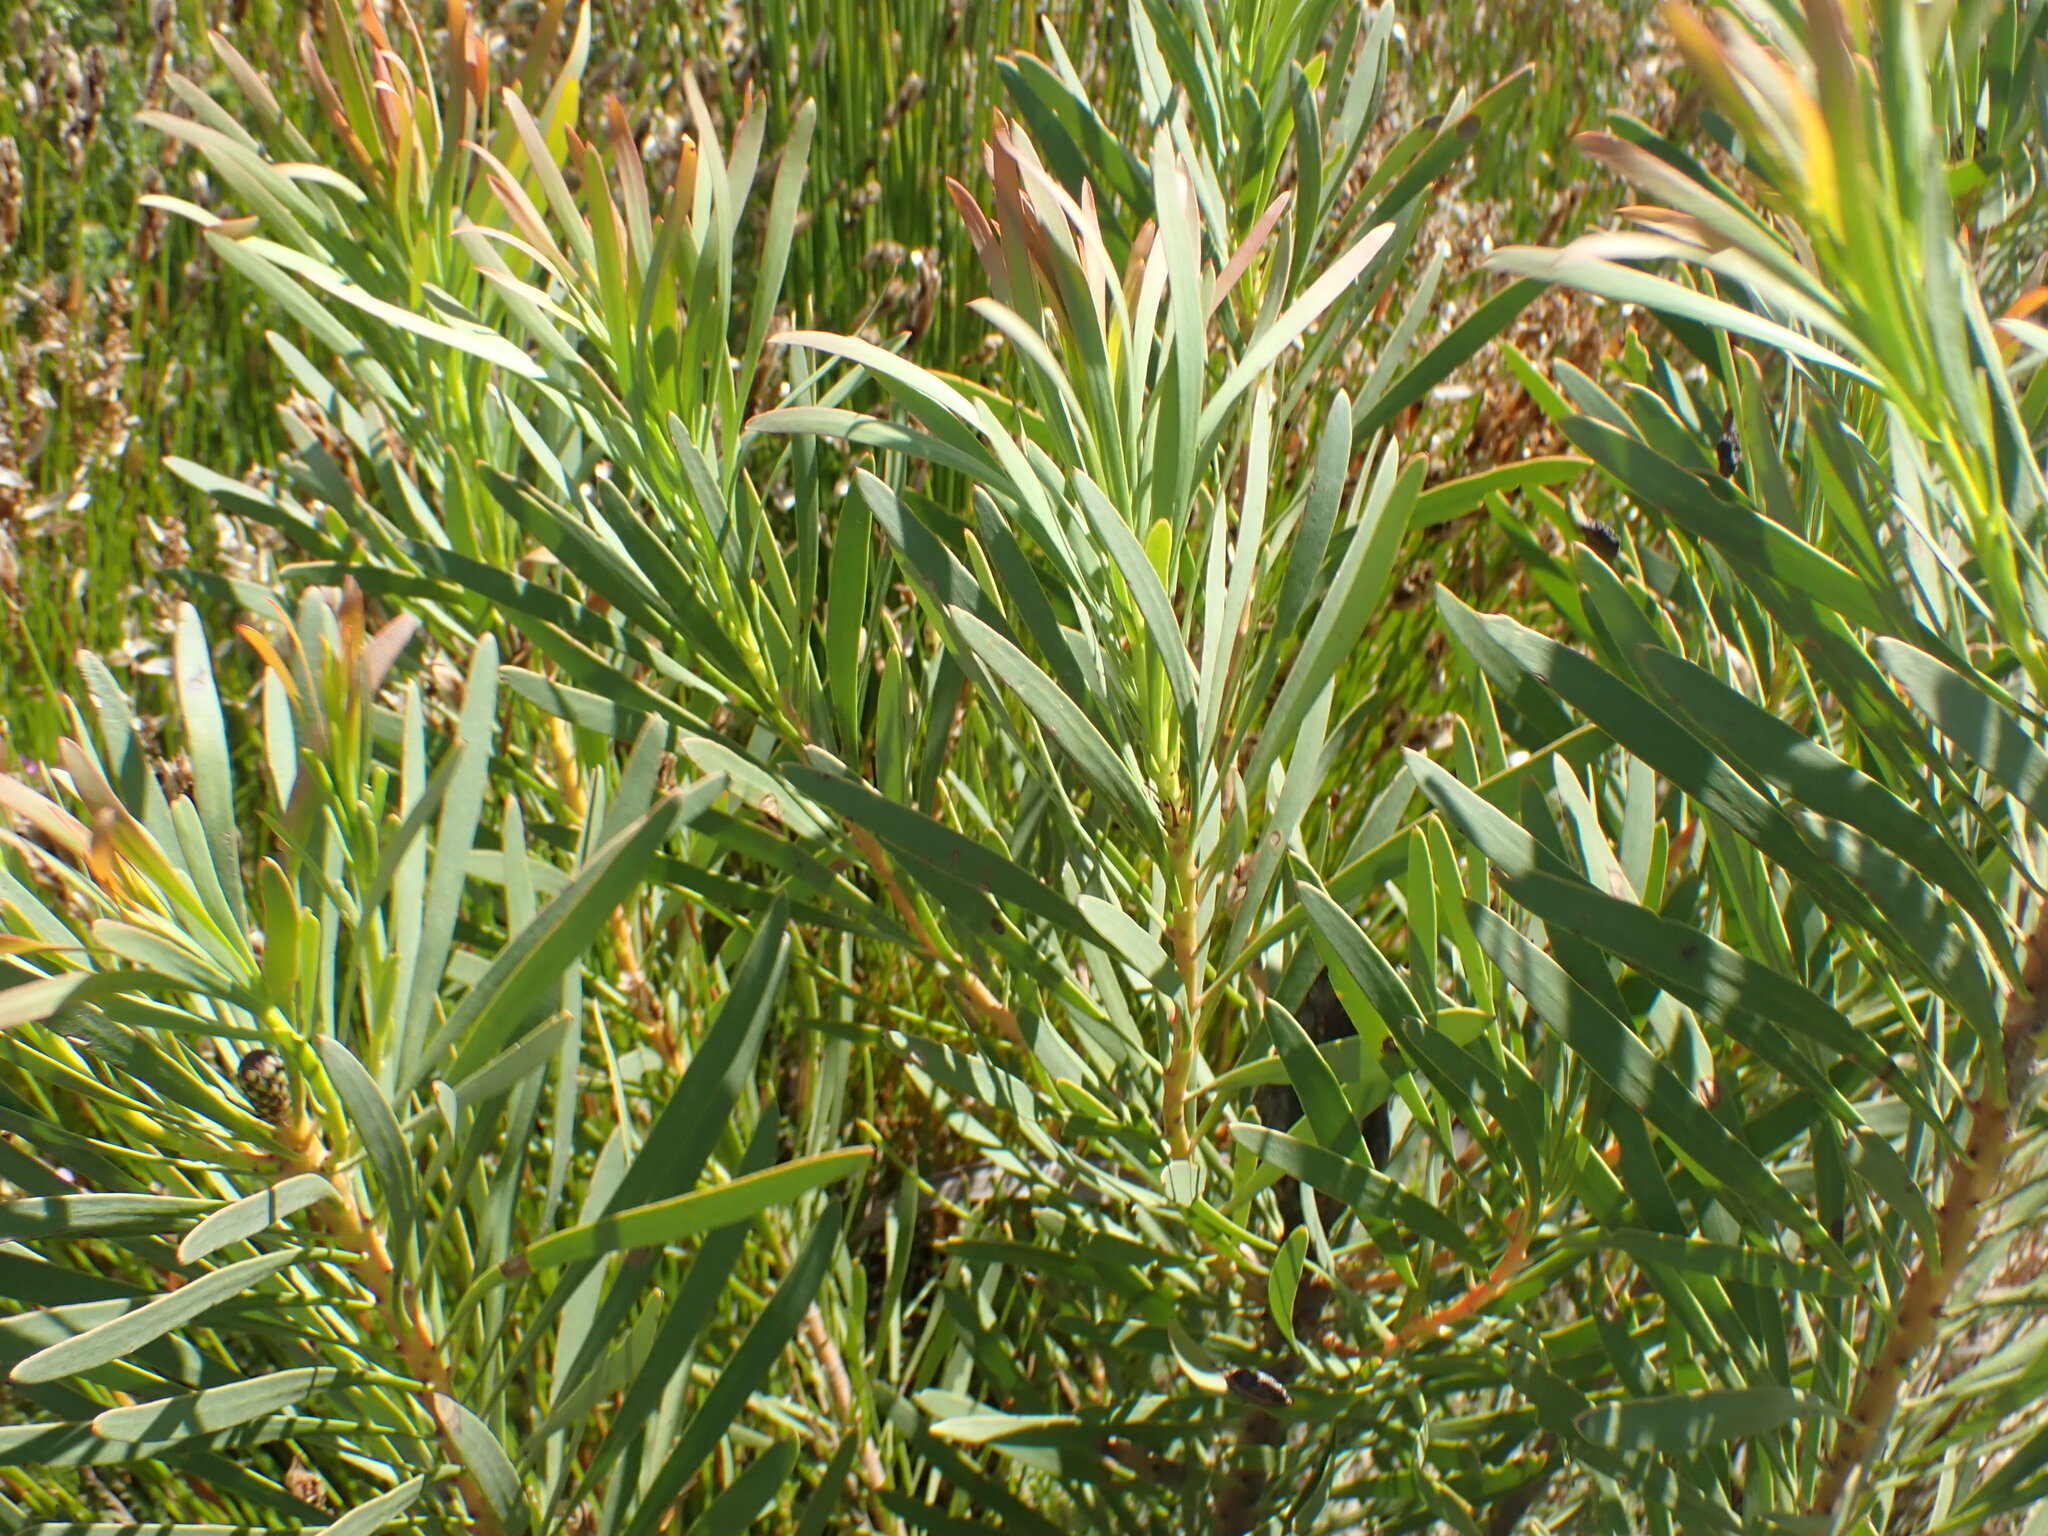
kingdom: Plantae
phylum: Tracheophyta
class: Magnoliopsida
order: Proteales
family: Proteaceae
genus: Protea
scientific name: Protea repens
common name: Sugarbush
